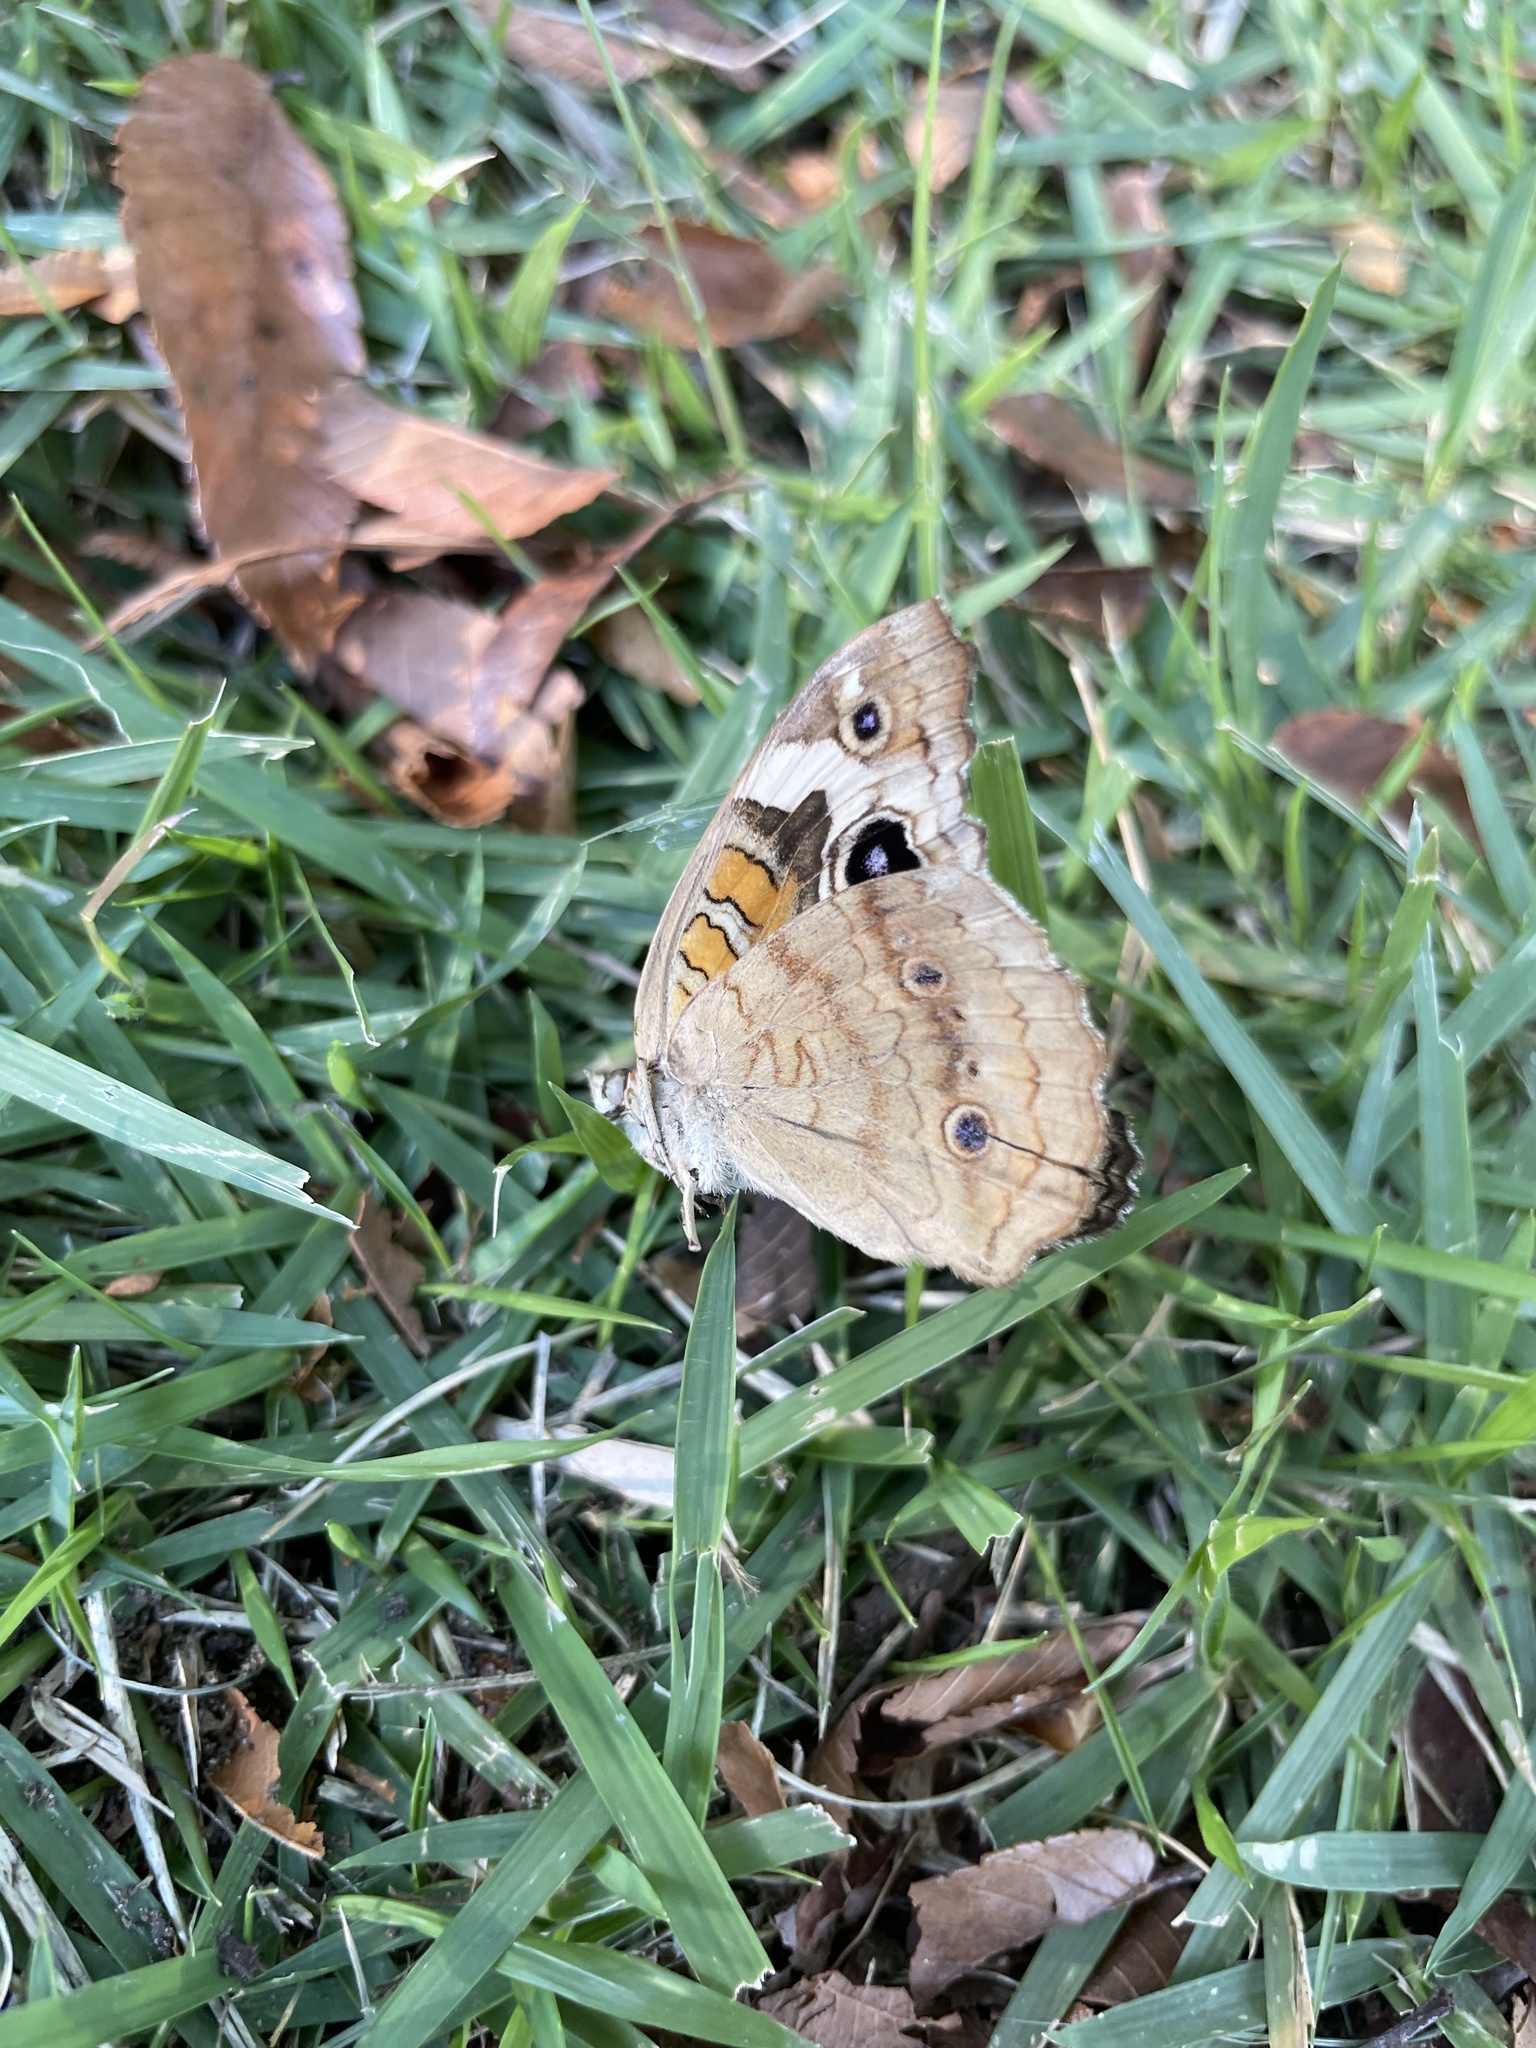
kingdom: Animalia
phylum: Arthropoda
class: Insecta
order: Lepidoptera
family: Nymphalidae
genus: Junonia
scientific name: Junonia coenia
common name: Common buckeye
